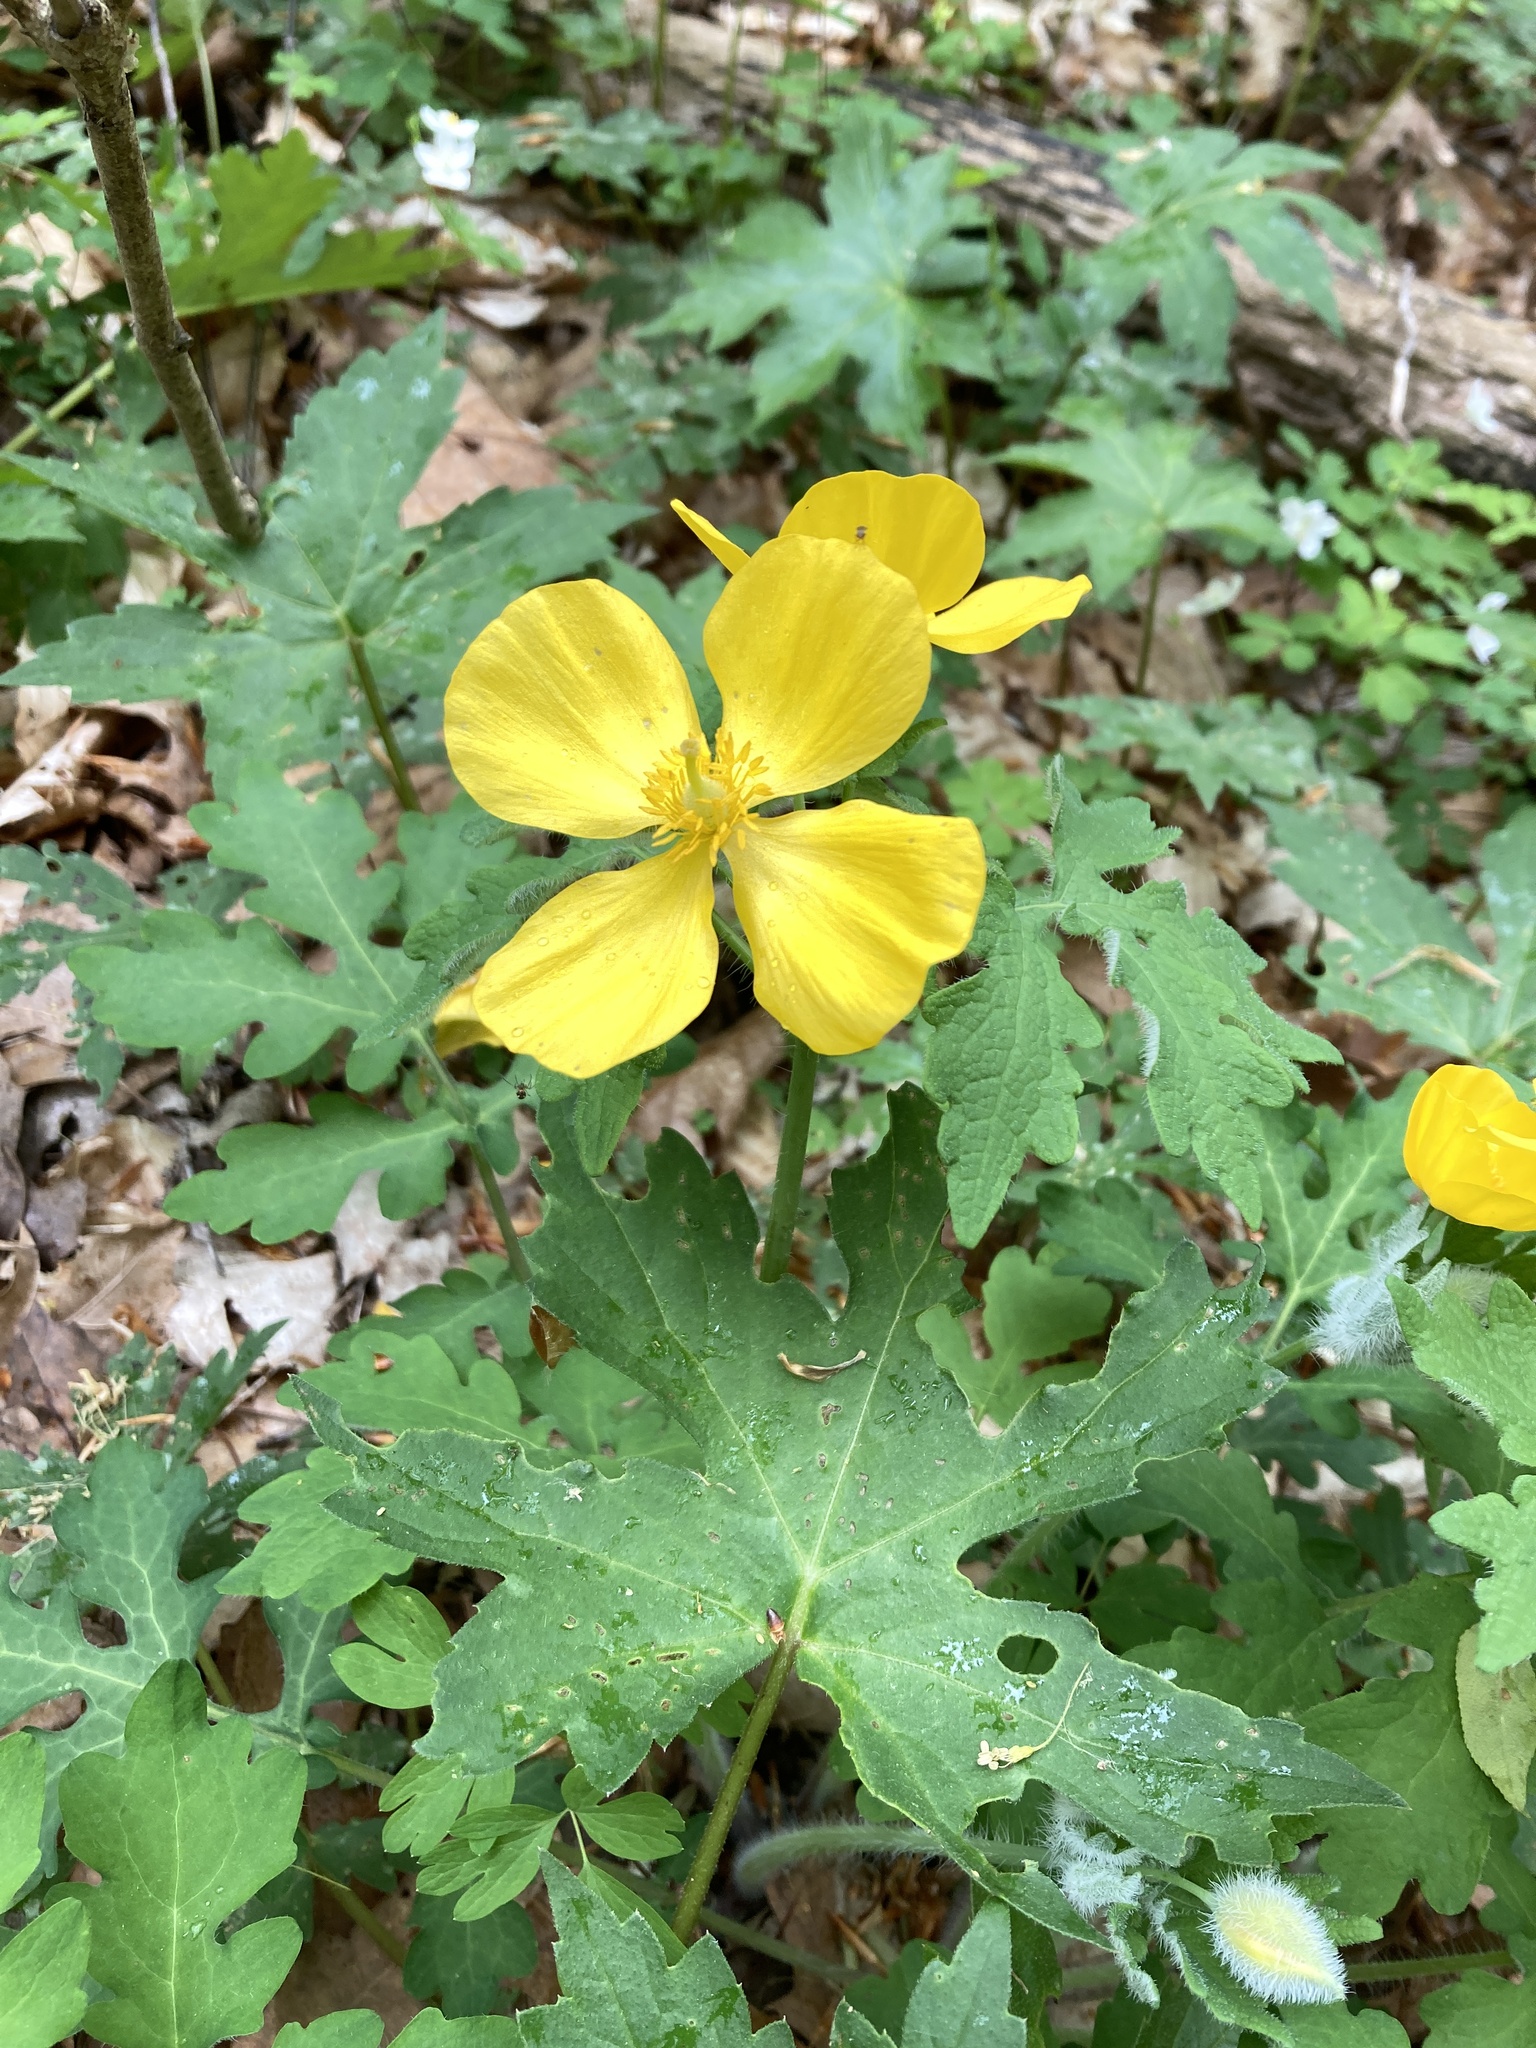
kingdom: Plantae
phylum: Tracheophyta
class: Magnoliopsida
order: Ranunculales
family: Papaveraceae
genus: Stylophorum
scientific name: Stylophorum diphyllum
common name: Celandine poppy
